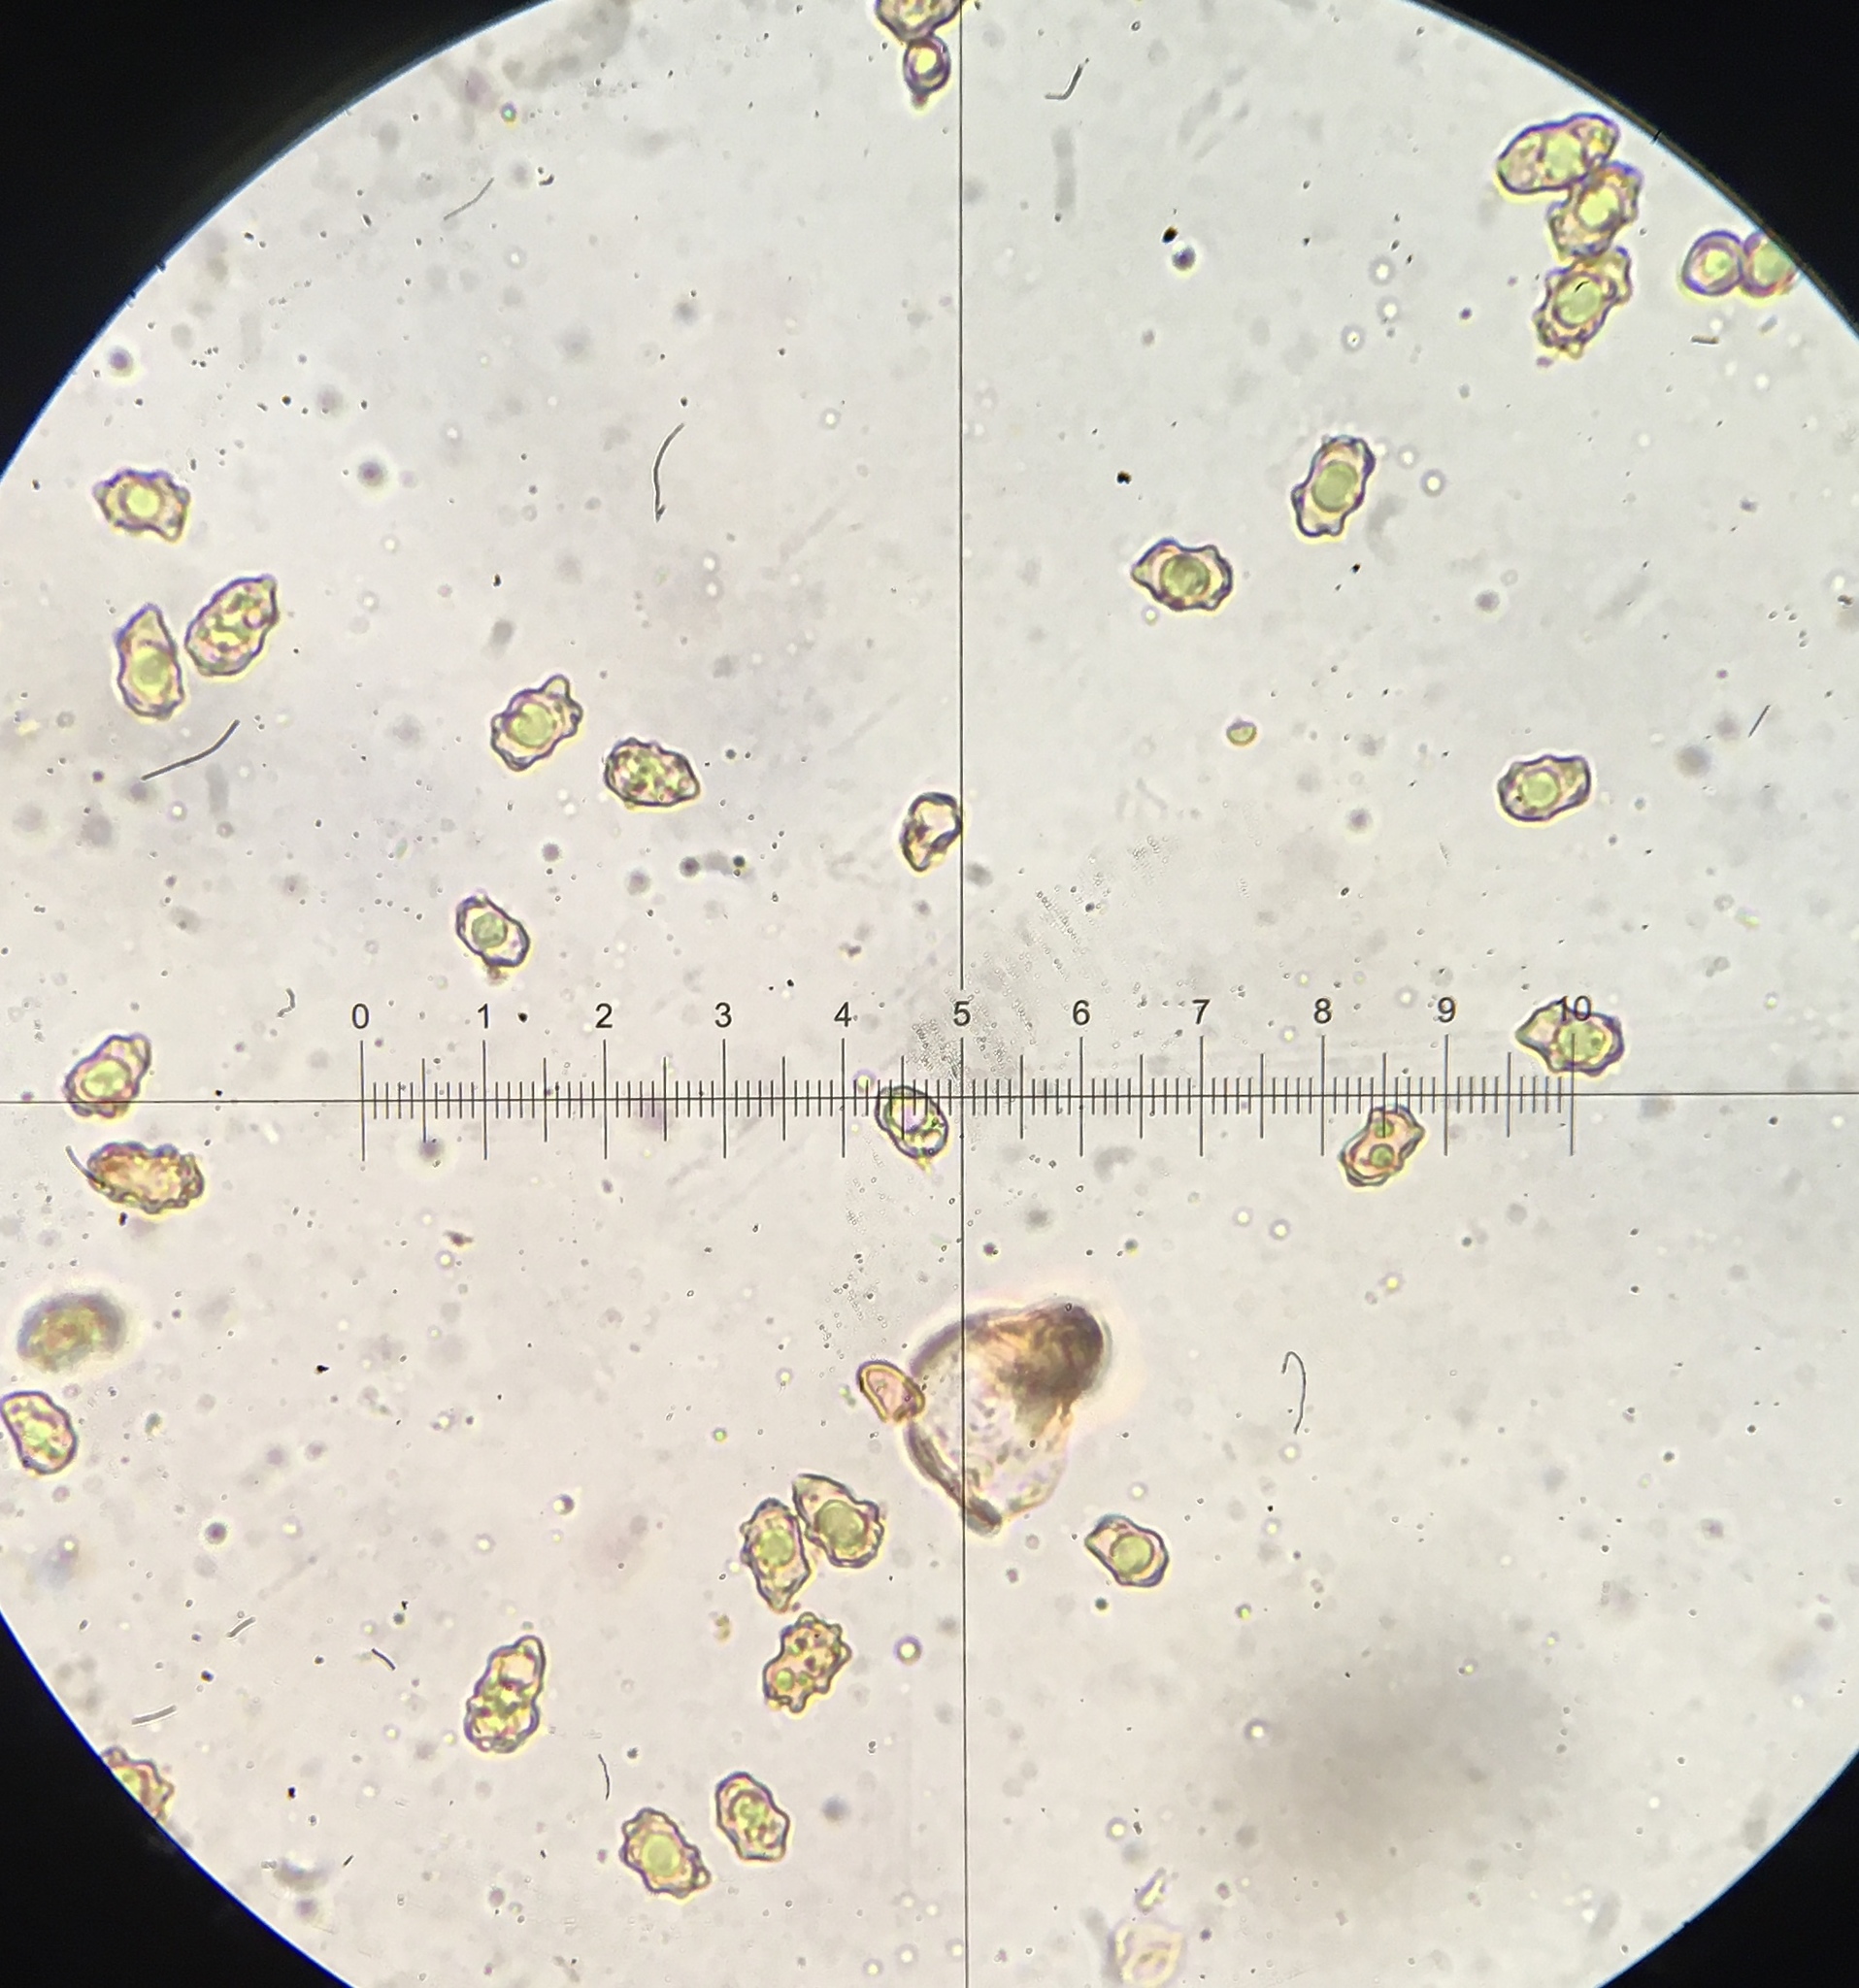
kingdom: Fungi
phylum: Basidiomycota
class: Agaricomycetes
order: Agaricales
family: Inocybaceae
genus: Inocybe
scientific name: Inocybe nothomixtilis
